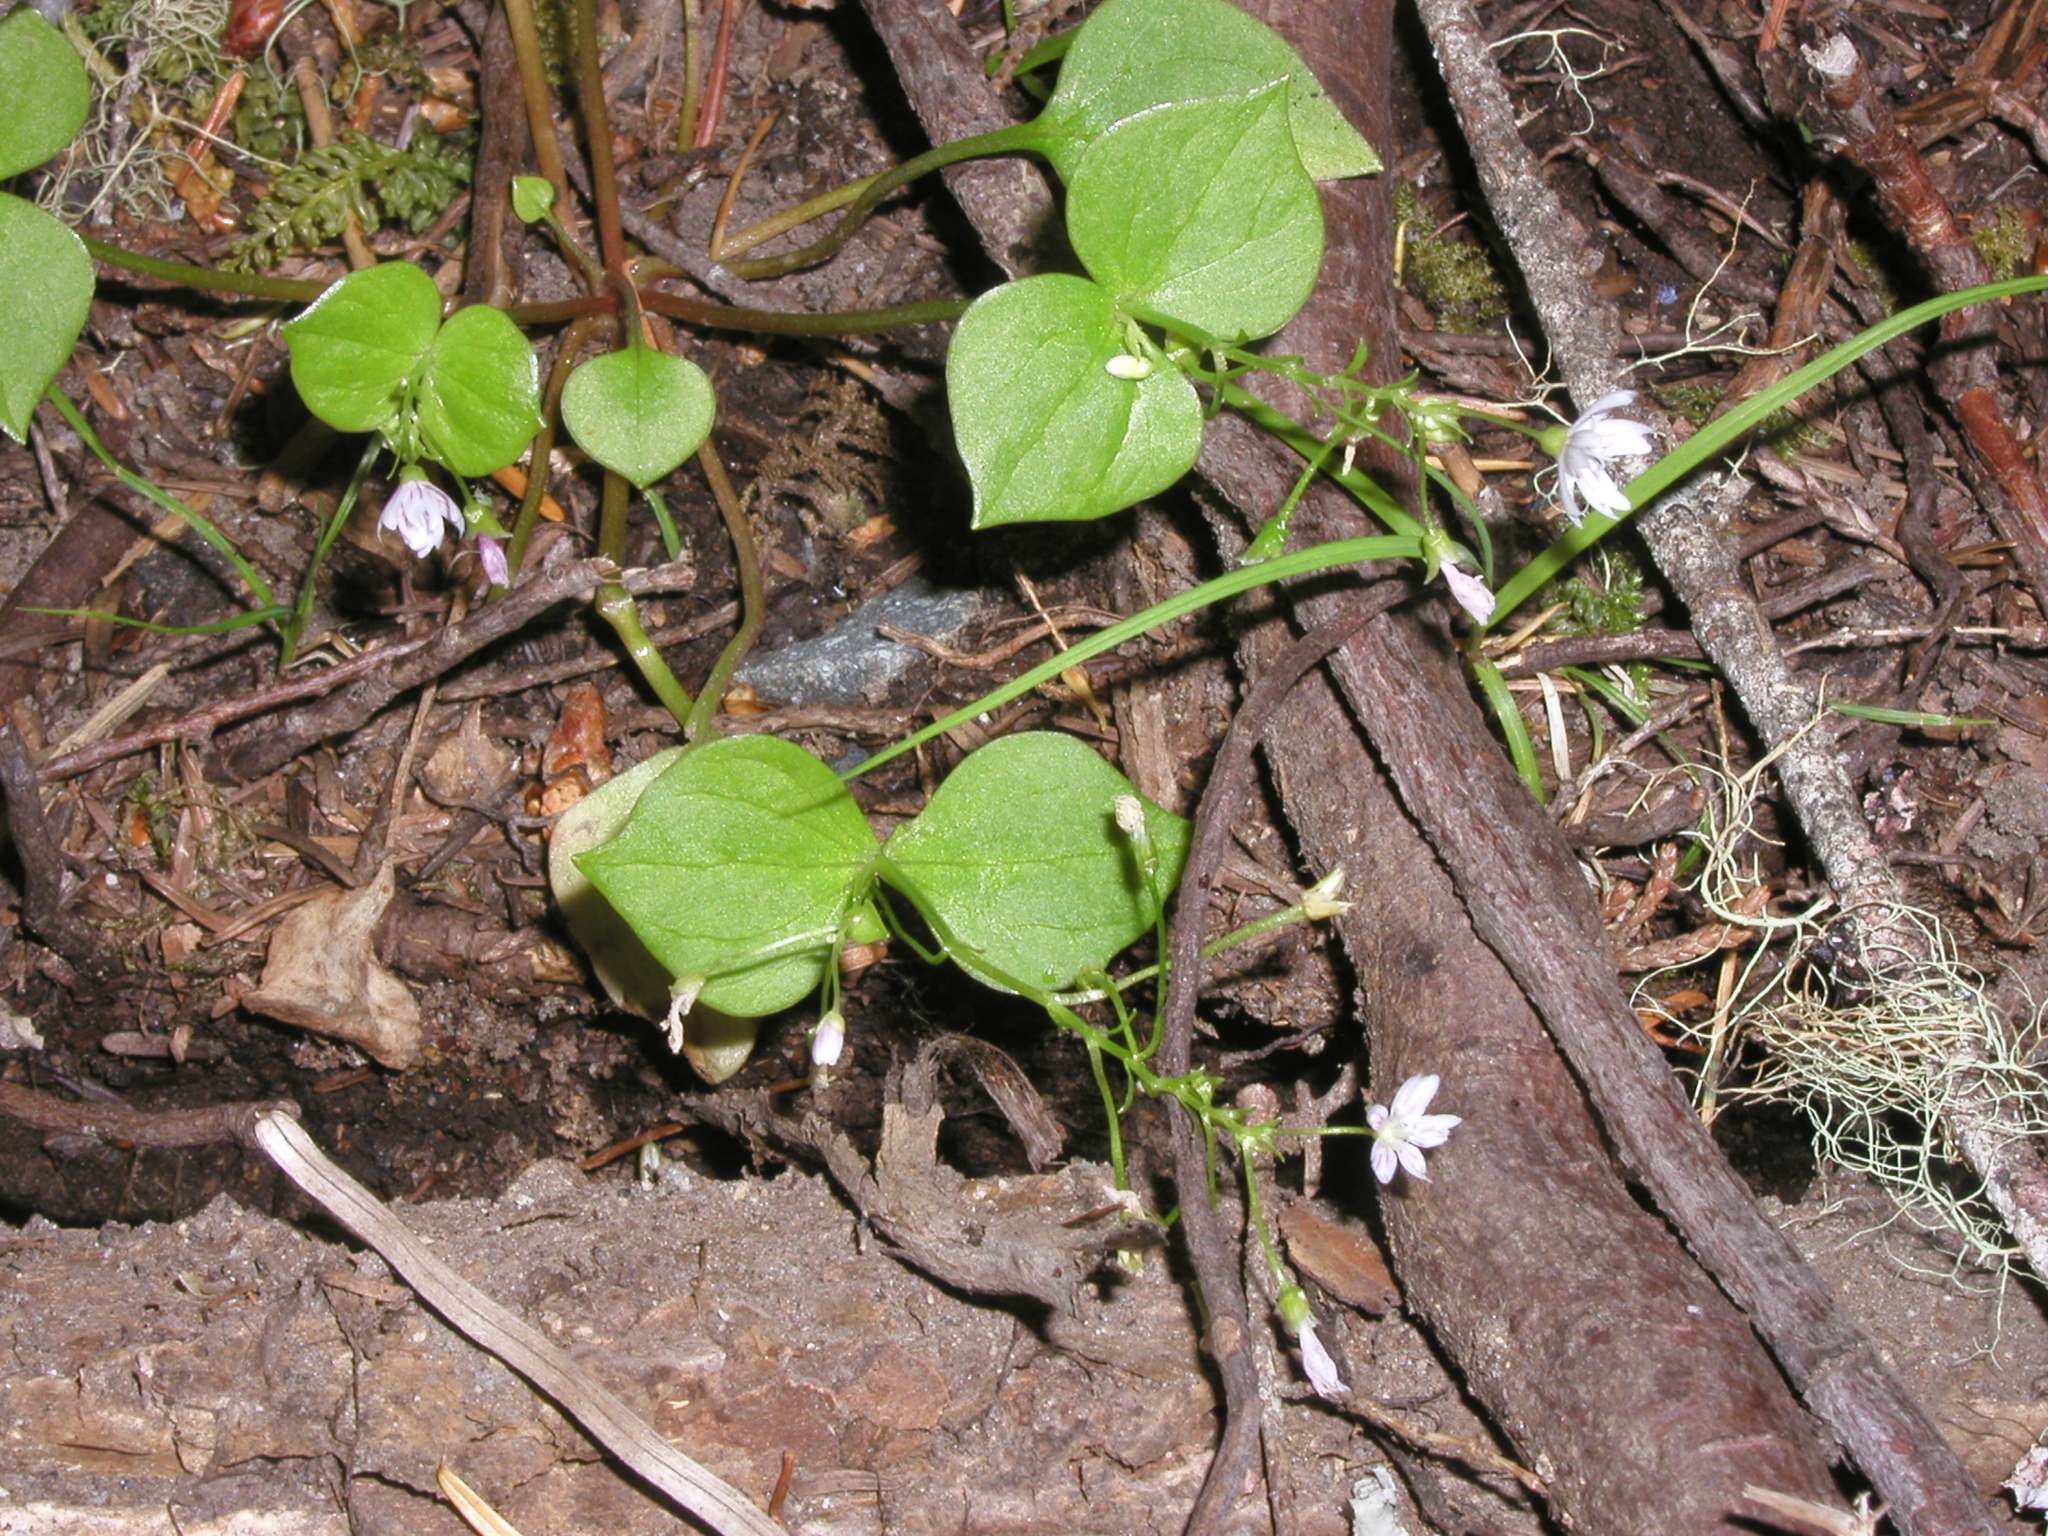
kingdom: Plantae
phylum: Tracheophyta
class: Magnoliopsida
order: Caryophyllales
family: Montiaceae
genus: Claytonia
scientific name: Claytonia sibirica
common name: Pink purslane
